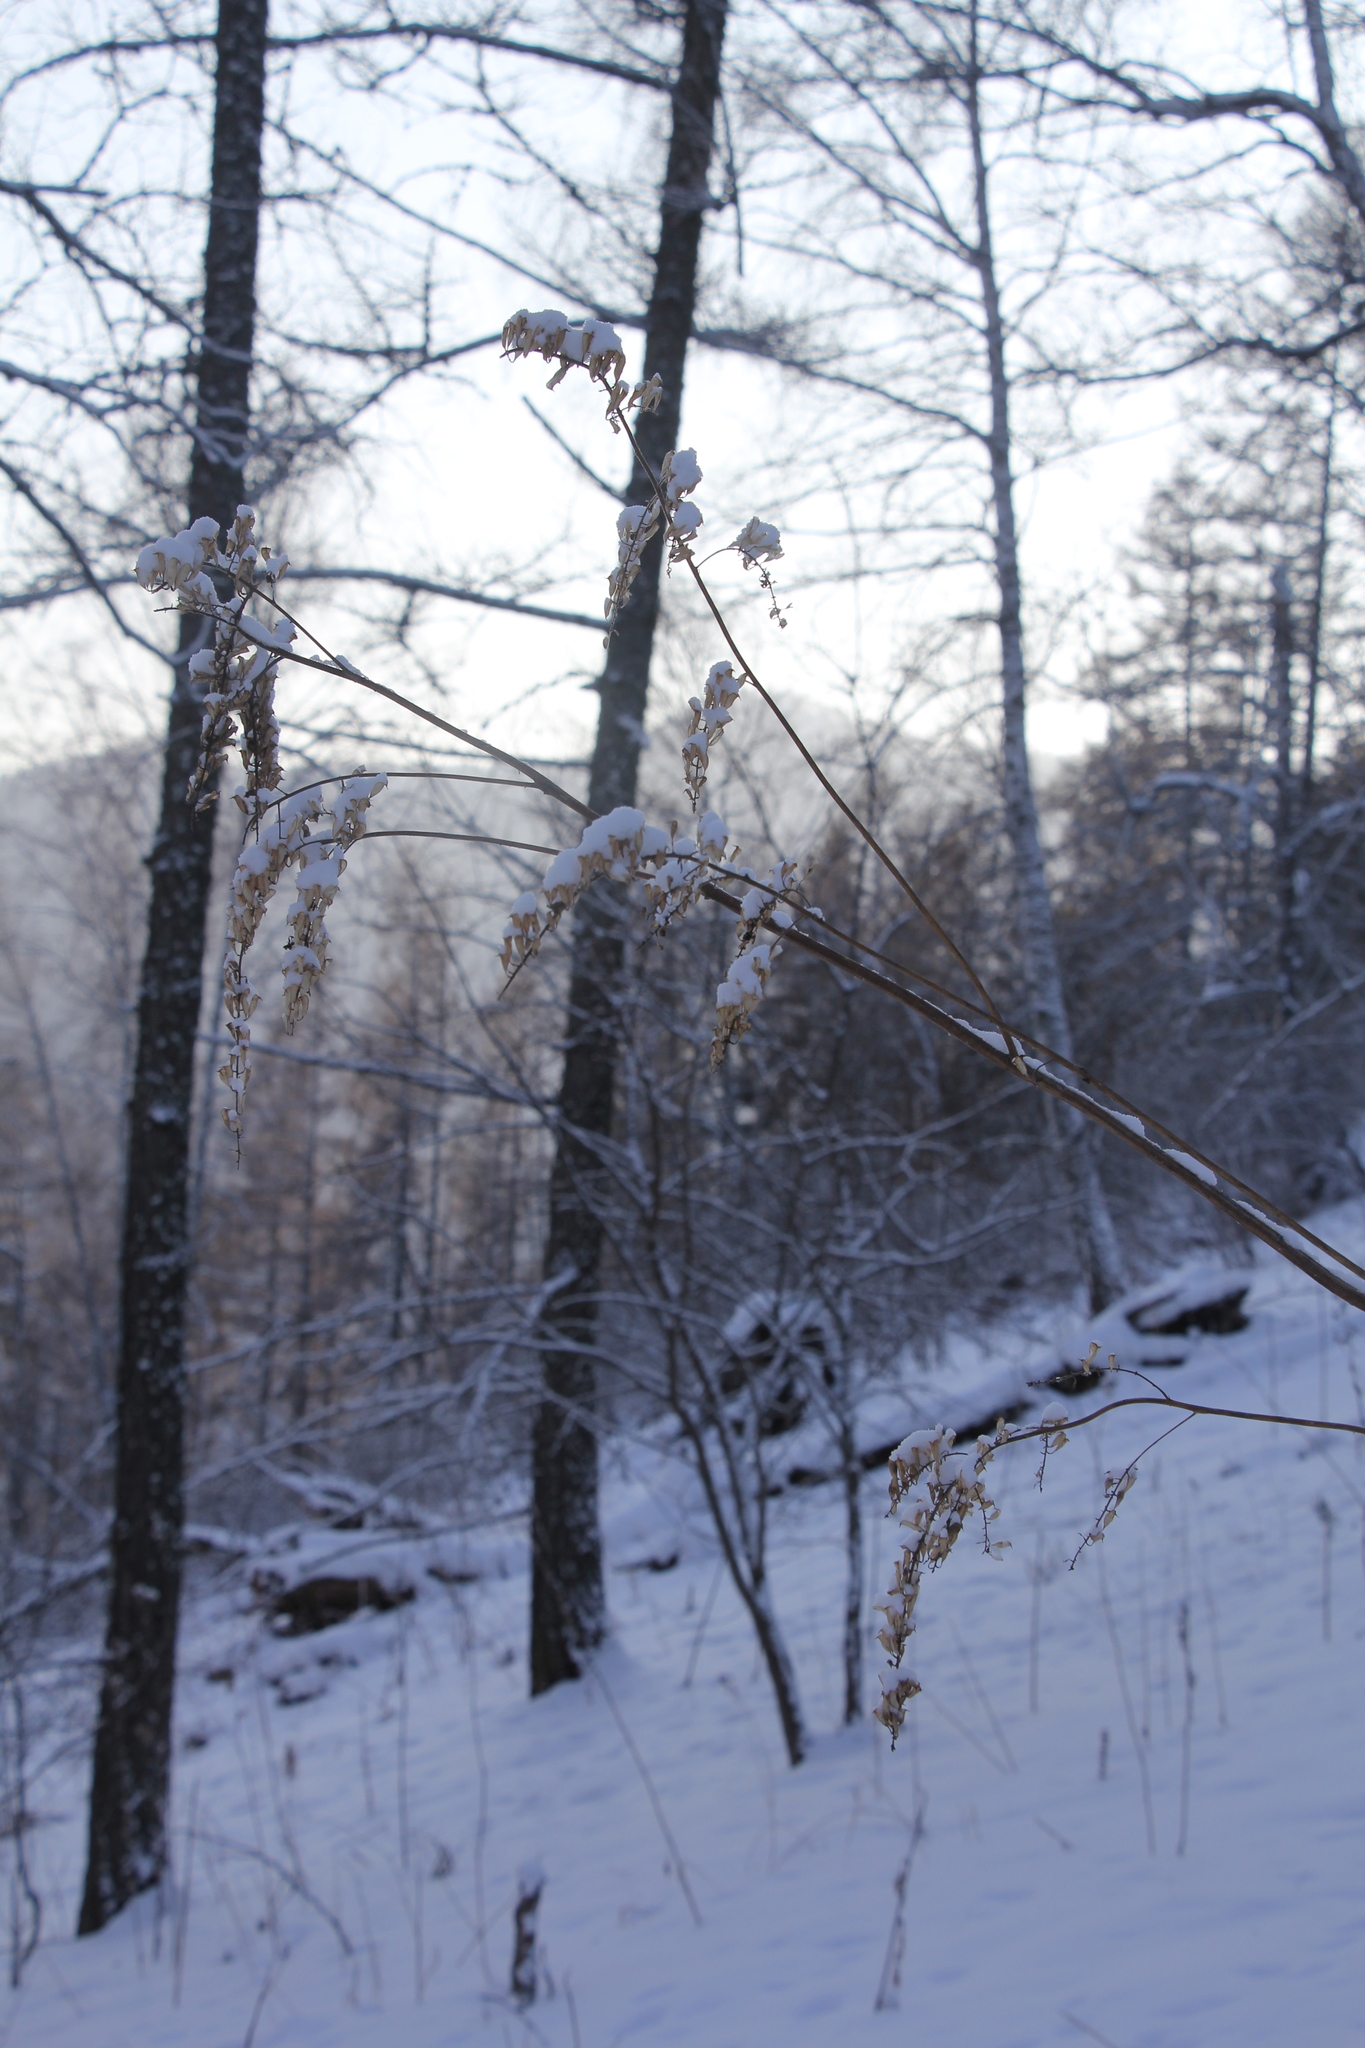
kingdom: Plantae
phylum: Tracheophyta
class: Magnoliopsida
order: Ranunculales
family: Ranunculaceae
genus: Actaea
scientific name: Actaea cimicifuga
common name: Chinese cimicifuga
